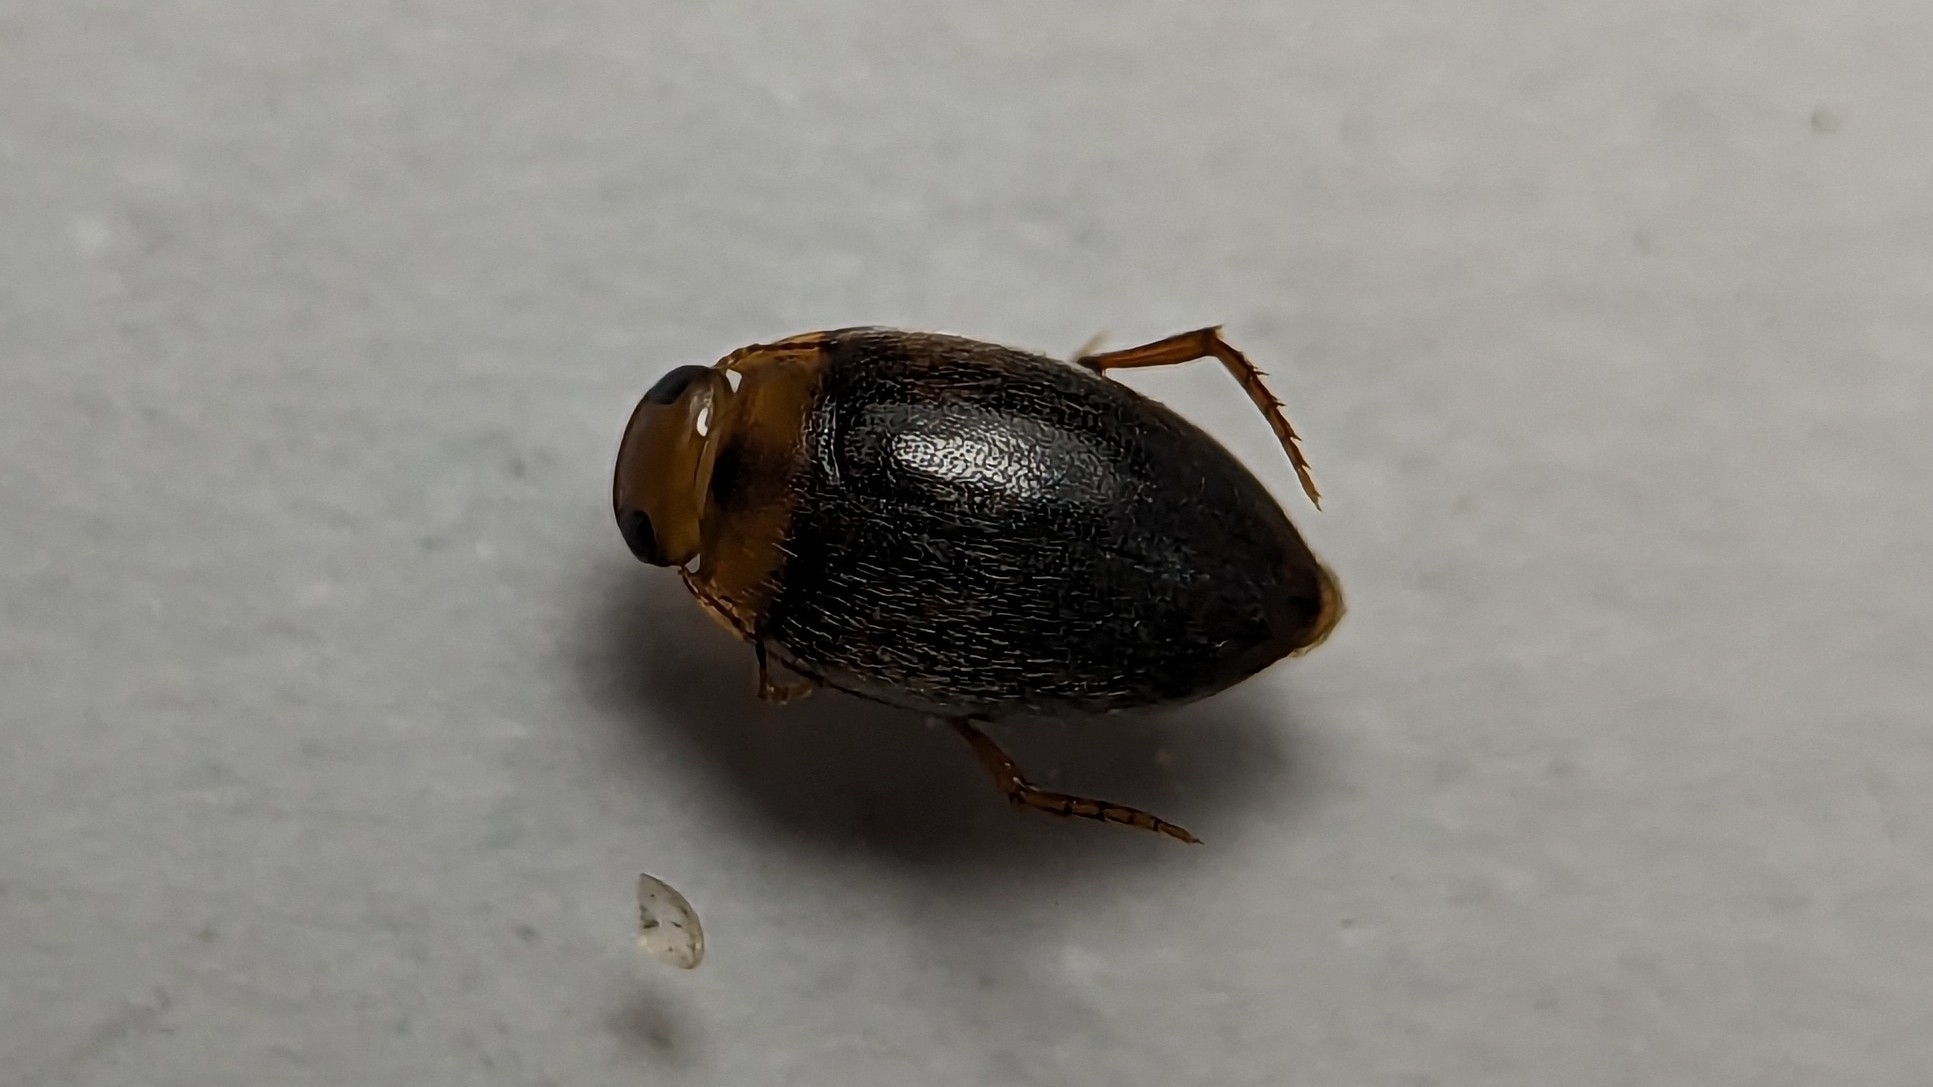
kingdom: Animalia
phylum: Arthropoda
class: Insecta
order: Coleoptera
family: Dytiscidae
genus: Neoporus
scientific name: Neoporus
